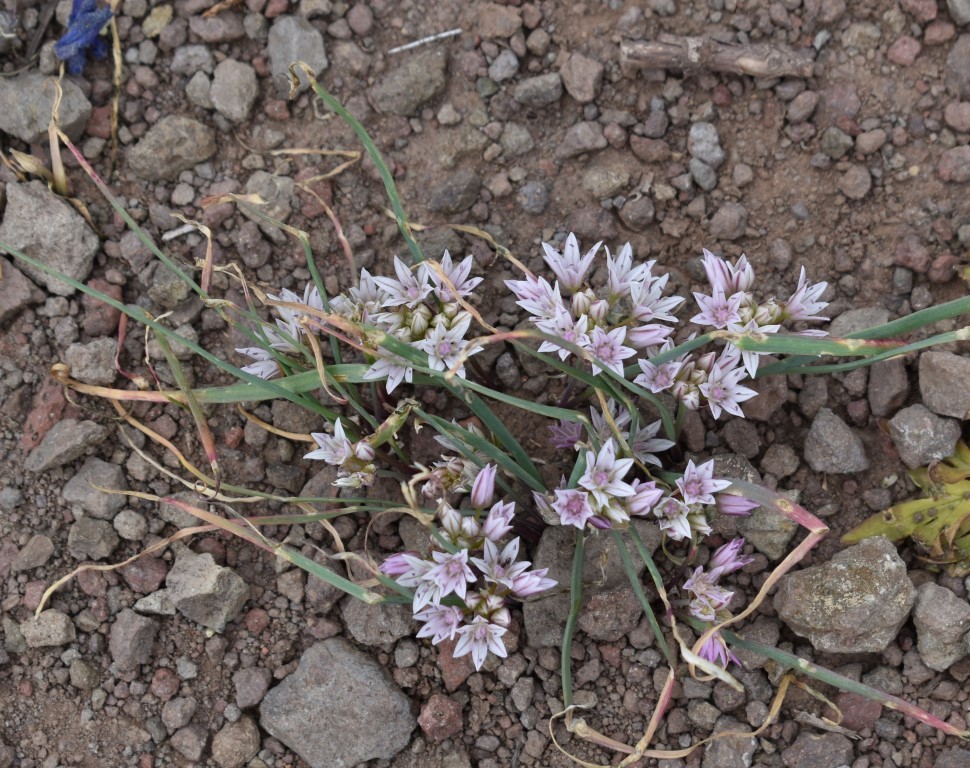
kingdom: Plantae
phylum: Tracheophyta
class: Liliopsida
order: Asparagales
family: Amaryllidaceae
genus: Allium
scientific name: Allium crenulatum
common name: Olympic onion
